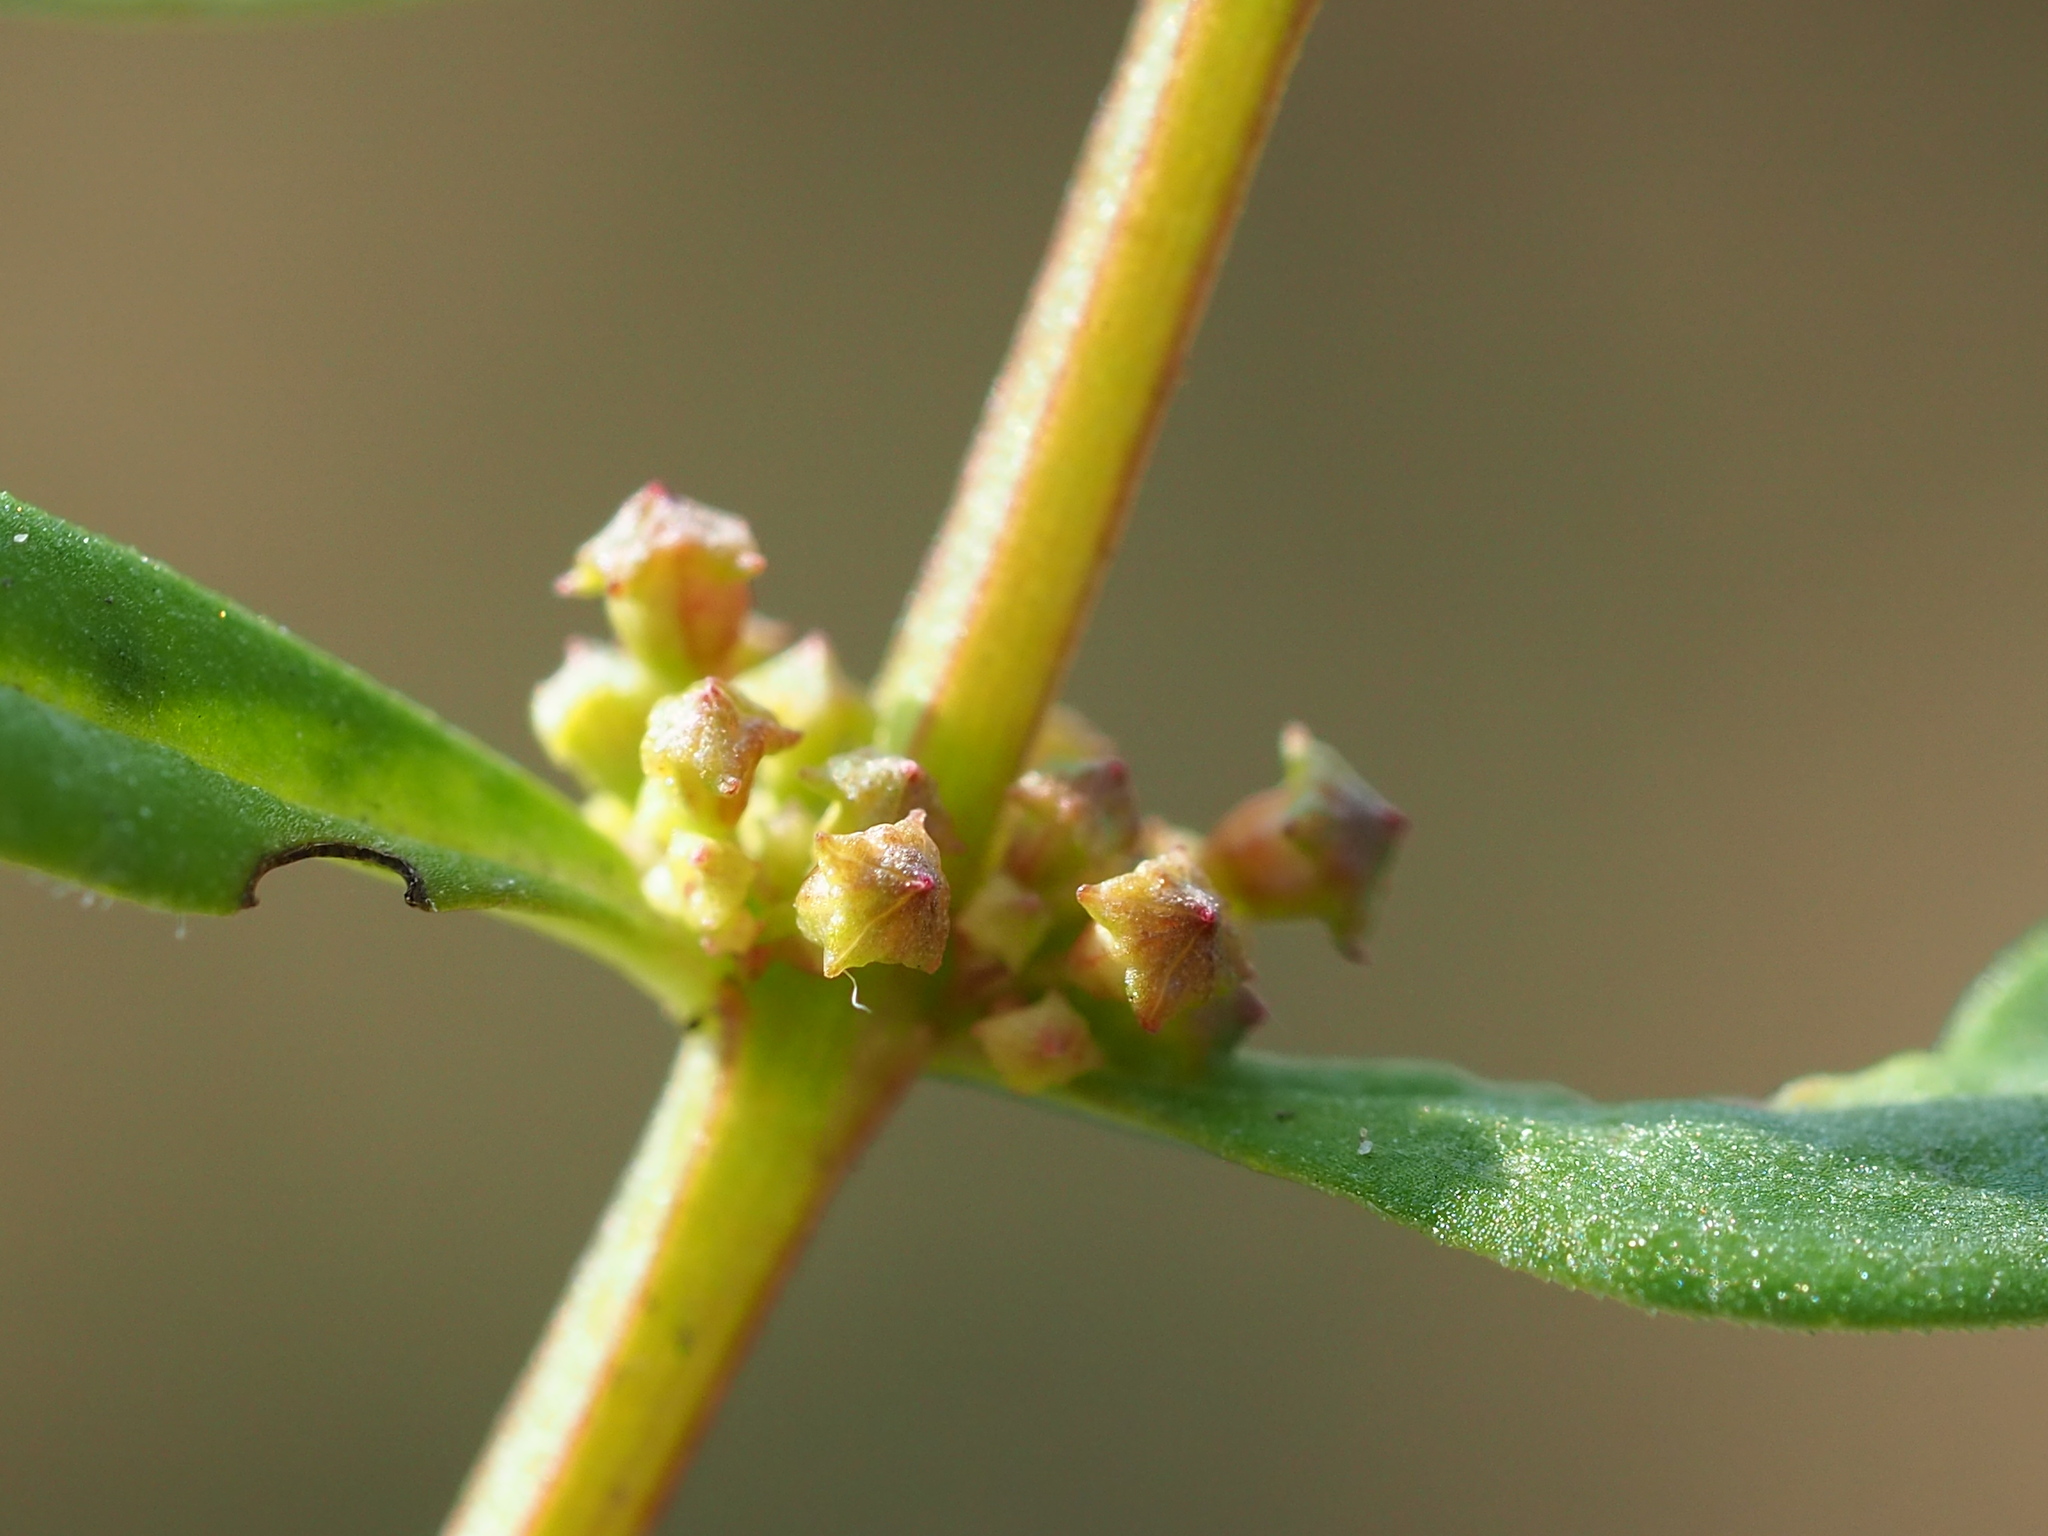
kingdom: Plantae
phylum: Tracheophyta
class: Magnoliopsida
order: Myrtales
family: Lythraceae
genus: Ammannia
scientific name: Ammannia baccifera
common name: Blistering ammania
